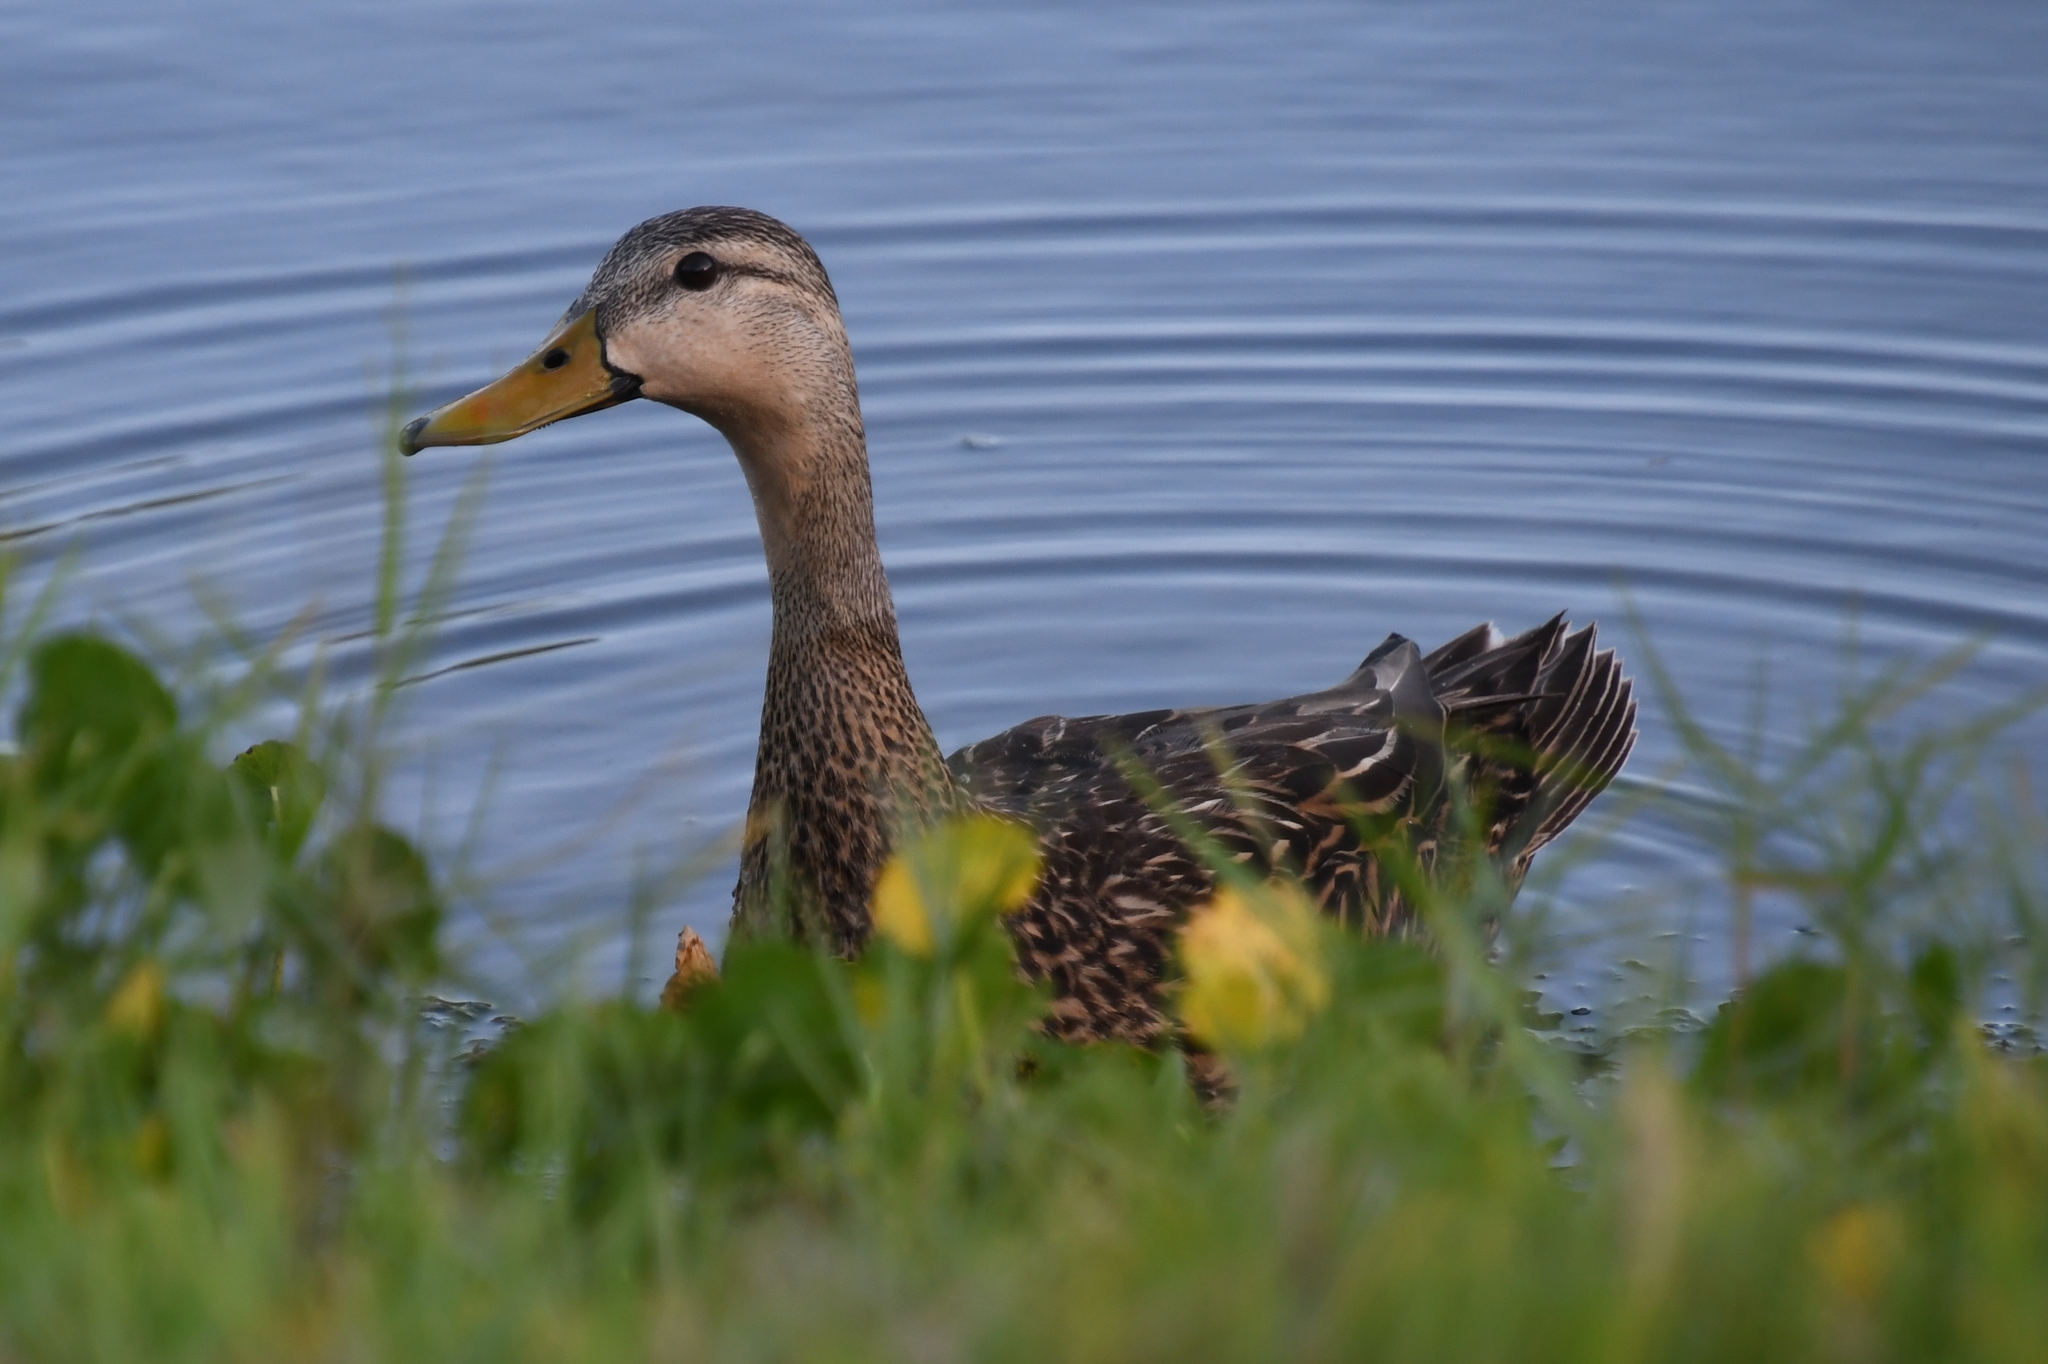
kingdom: Animalia
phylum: Chordata
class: Aves
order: Anseriformes
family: Anatidae
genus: Anas
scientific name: Anas fulvigula
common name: Mottled duck
